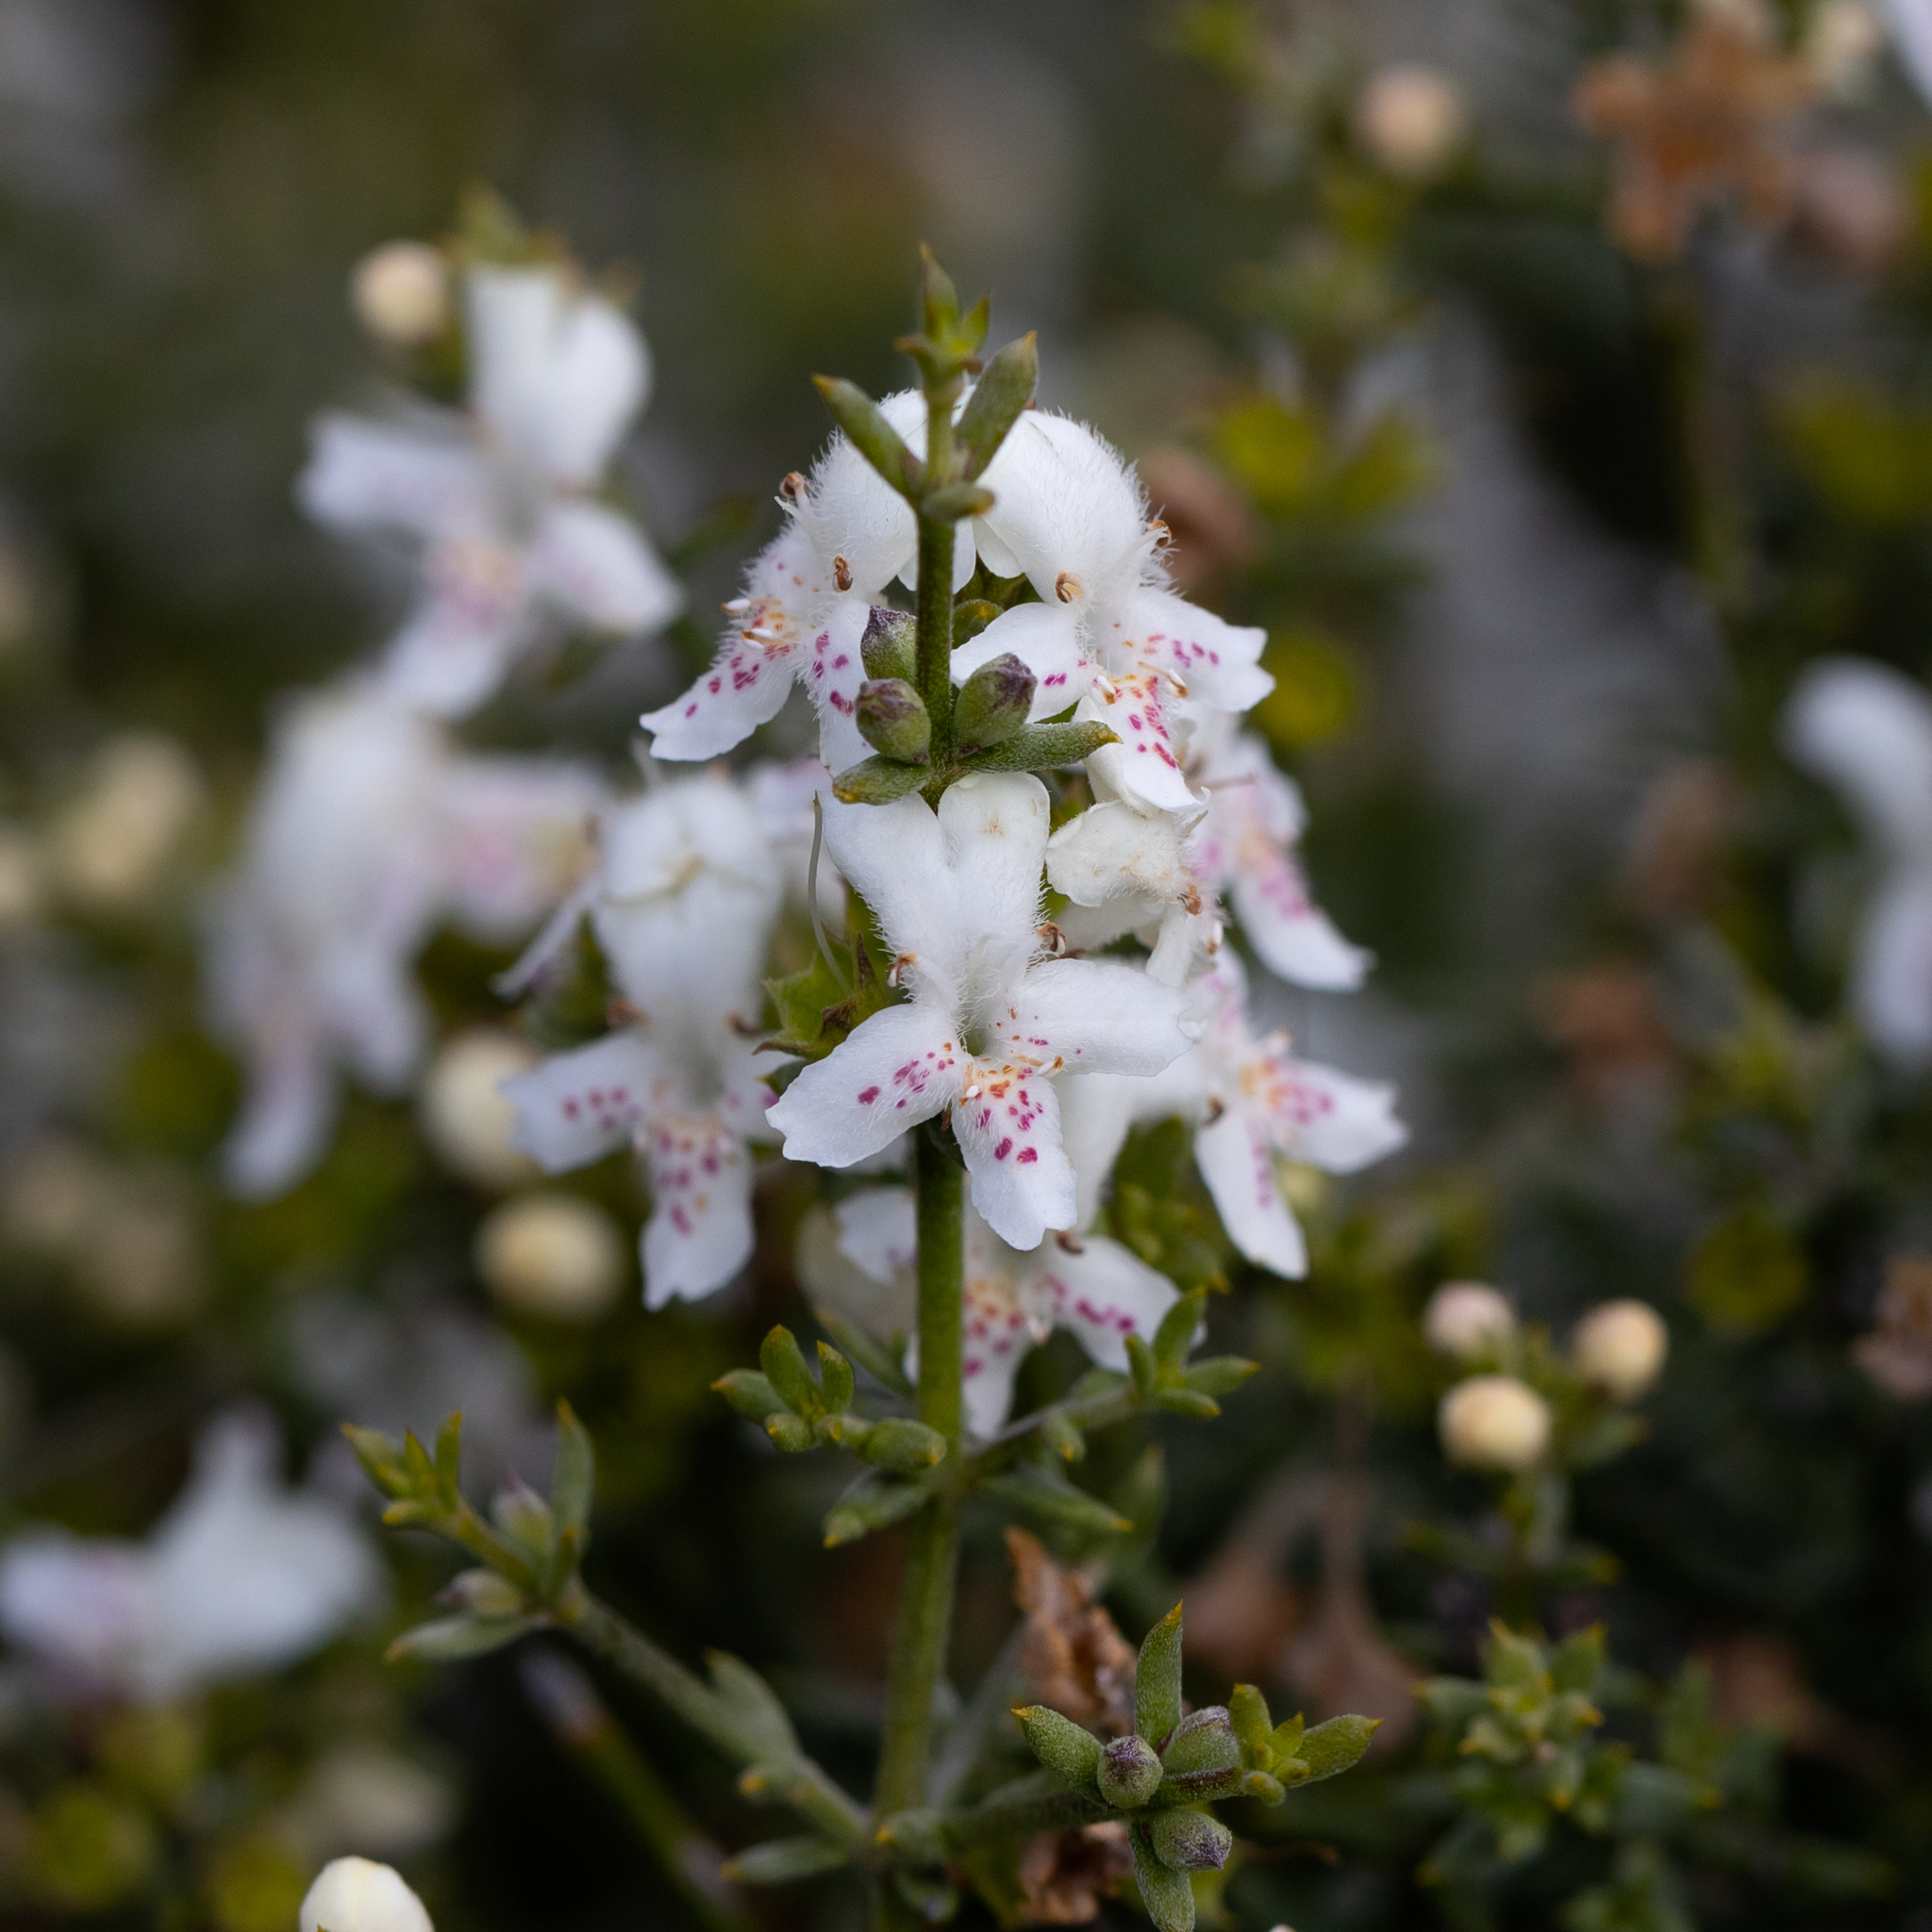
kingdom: Plantae
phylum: Tracheophyta
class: Magnoliopsida
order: Lamiales
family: Lamiaceae
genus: Westringia
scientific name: Westringia rigida
